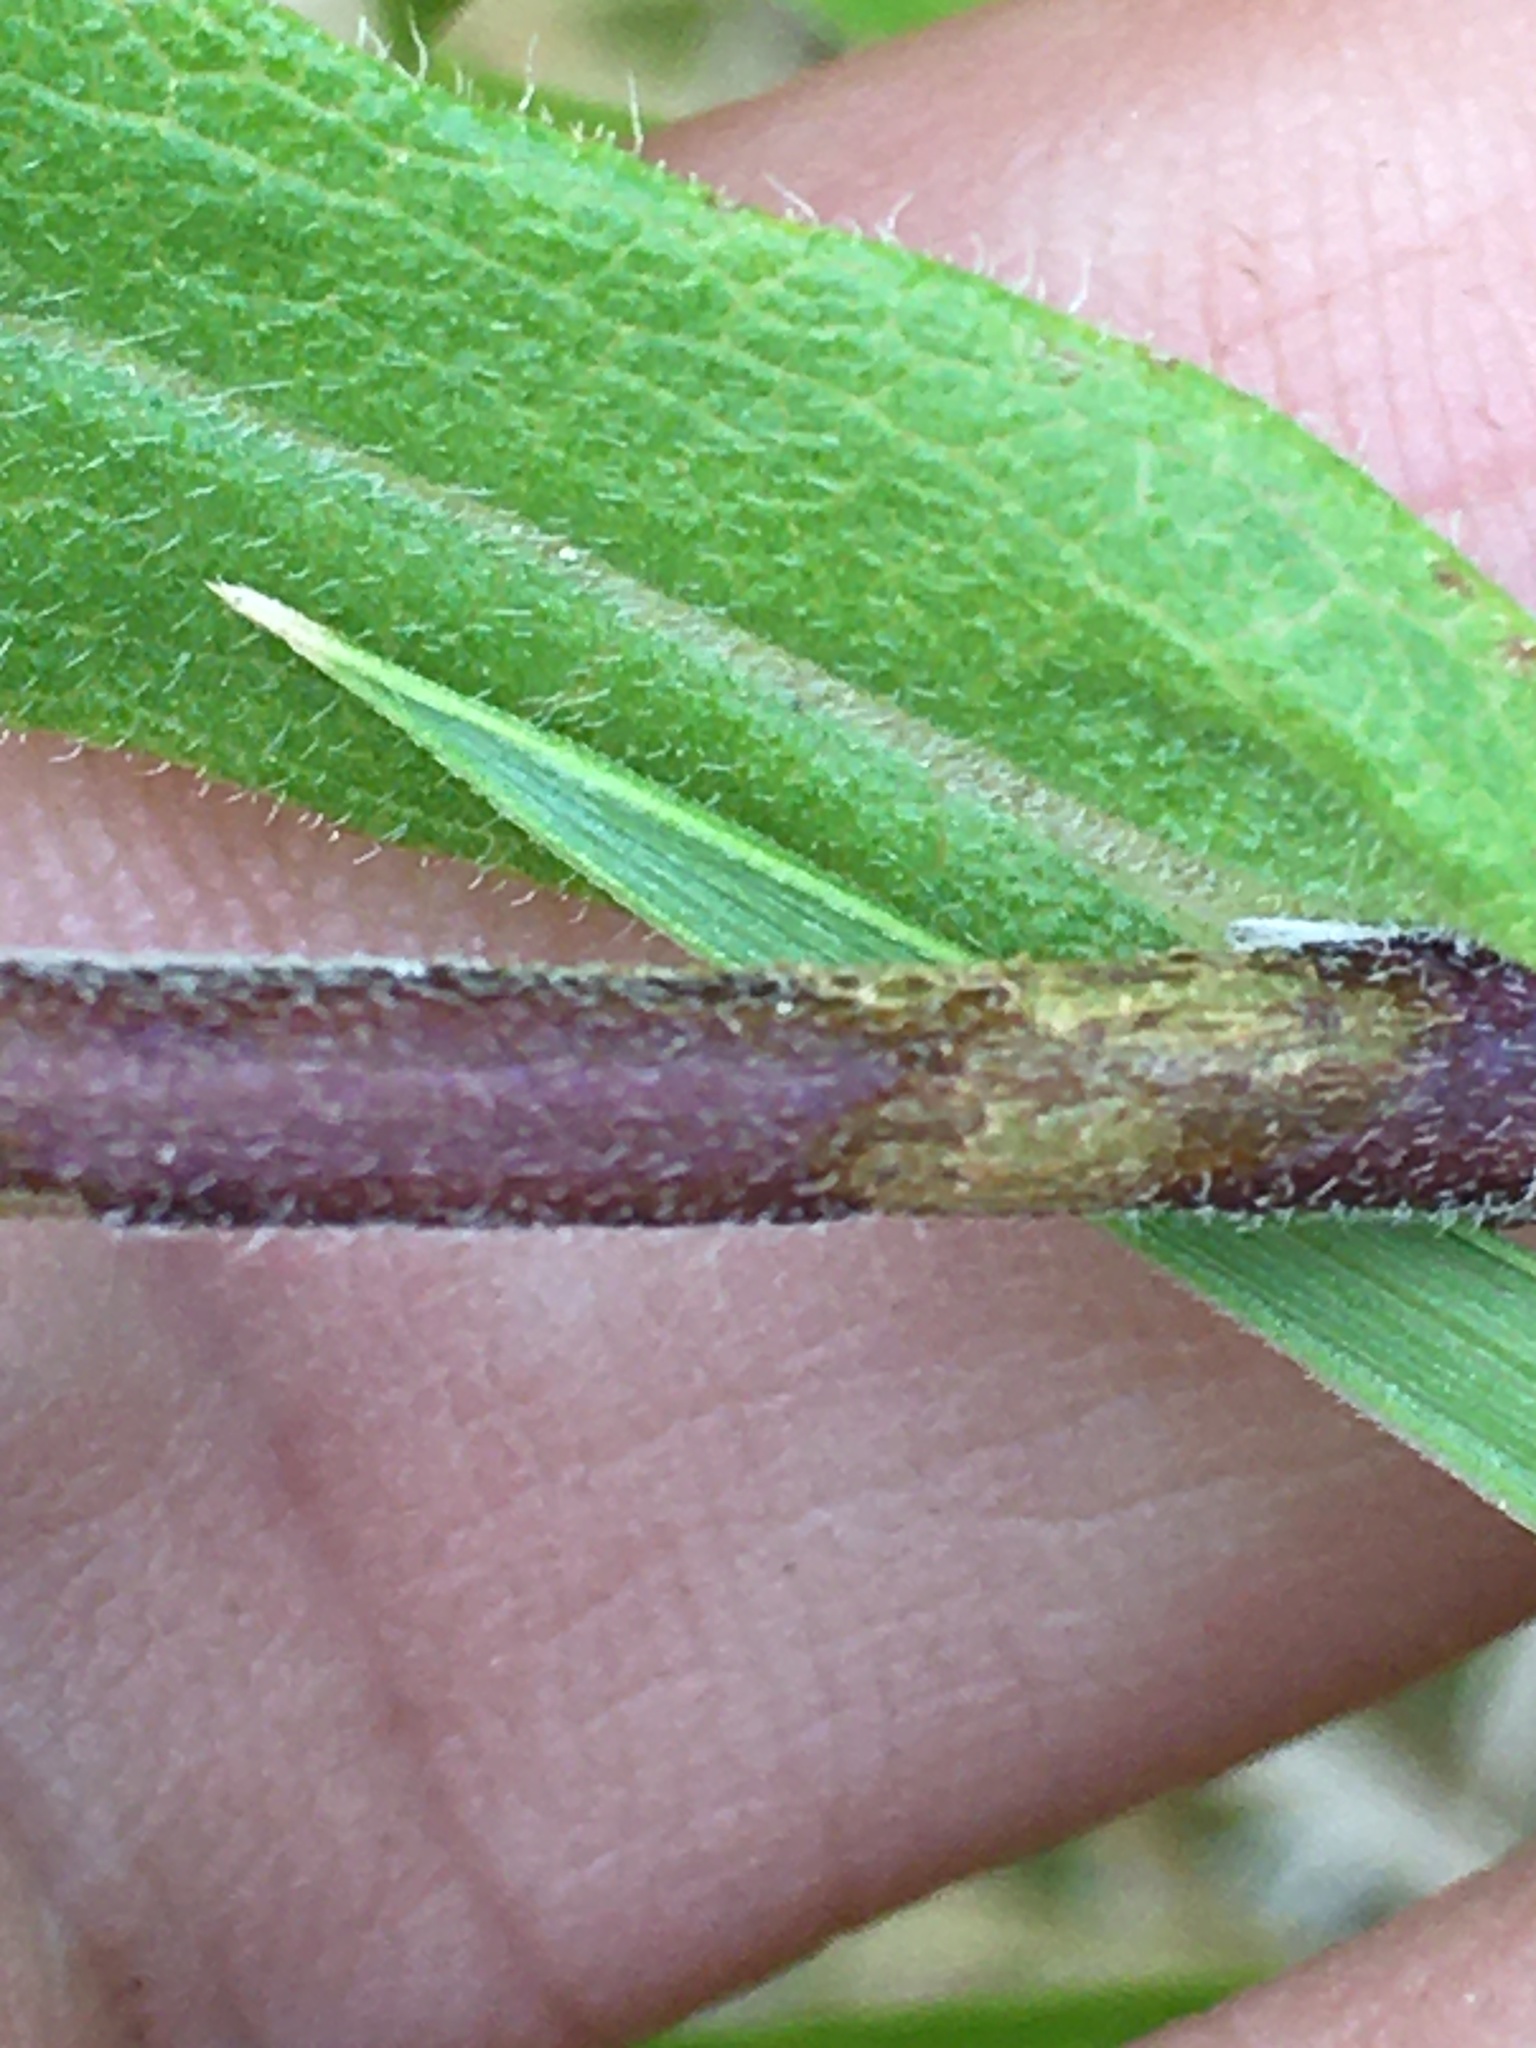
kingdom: Plantae
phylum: Tracheophyta
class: Magnoliopsida
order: Asterales
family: Asteraceae
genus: Symphyotrichum
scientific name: Symphyotrichum patens
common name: Late purple aster
